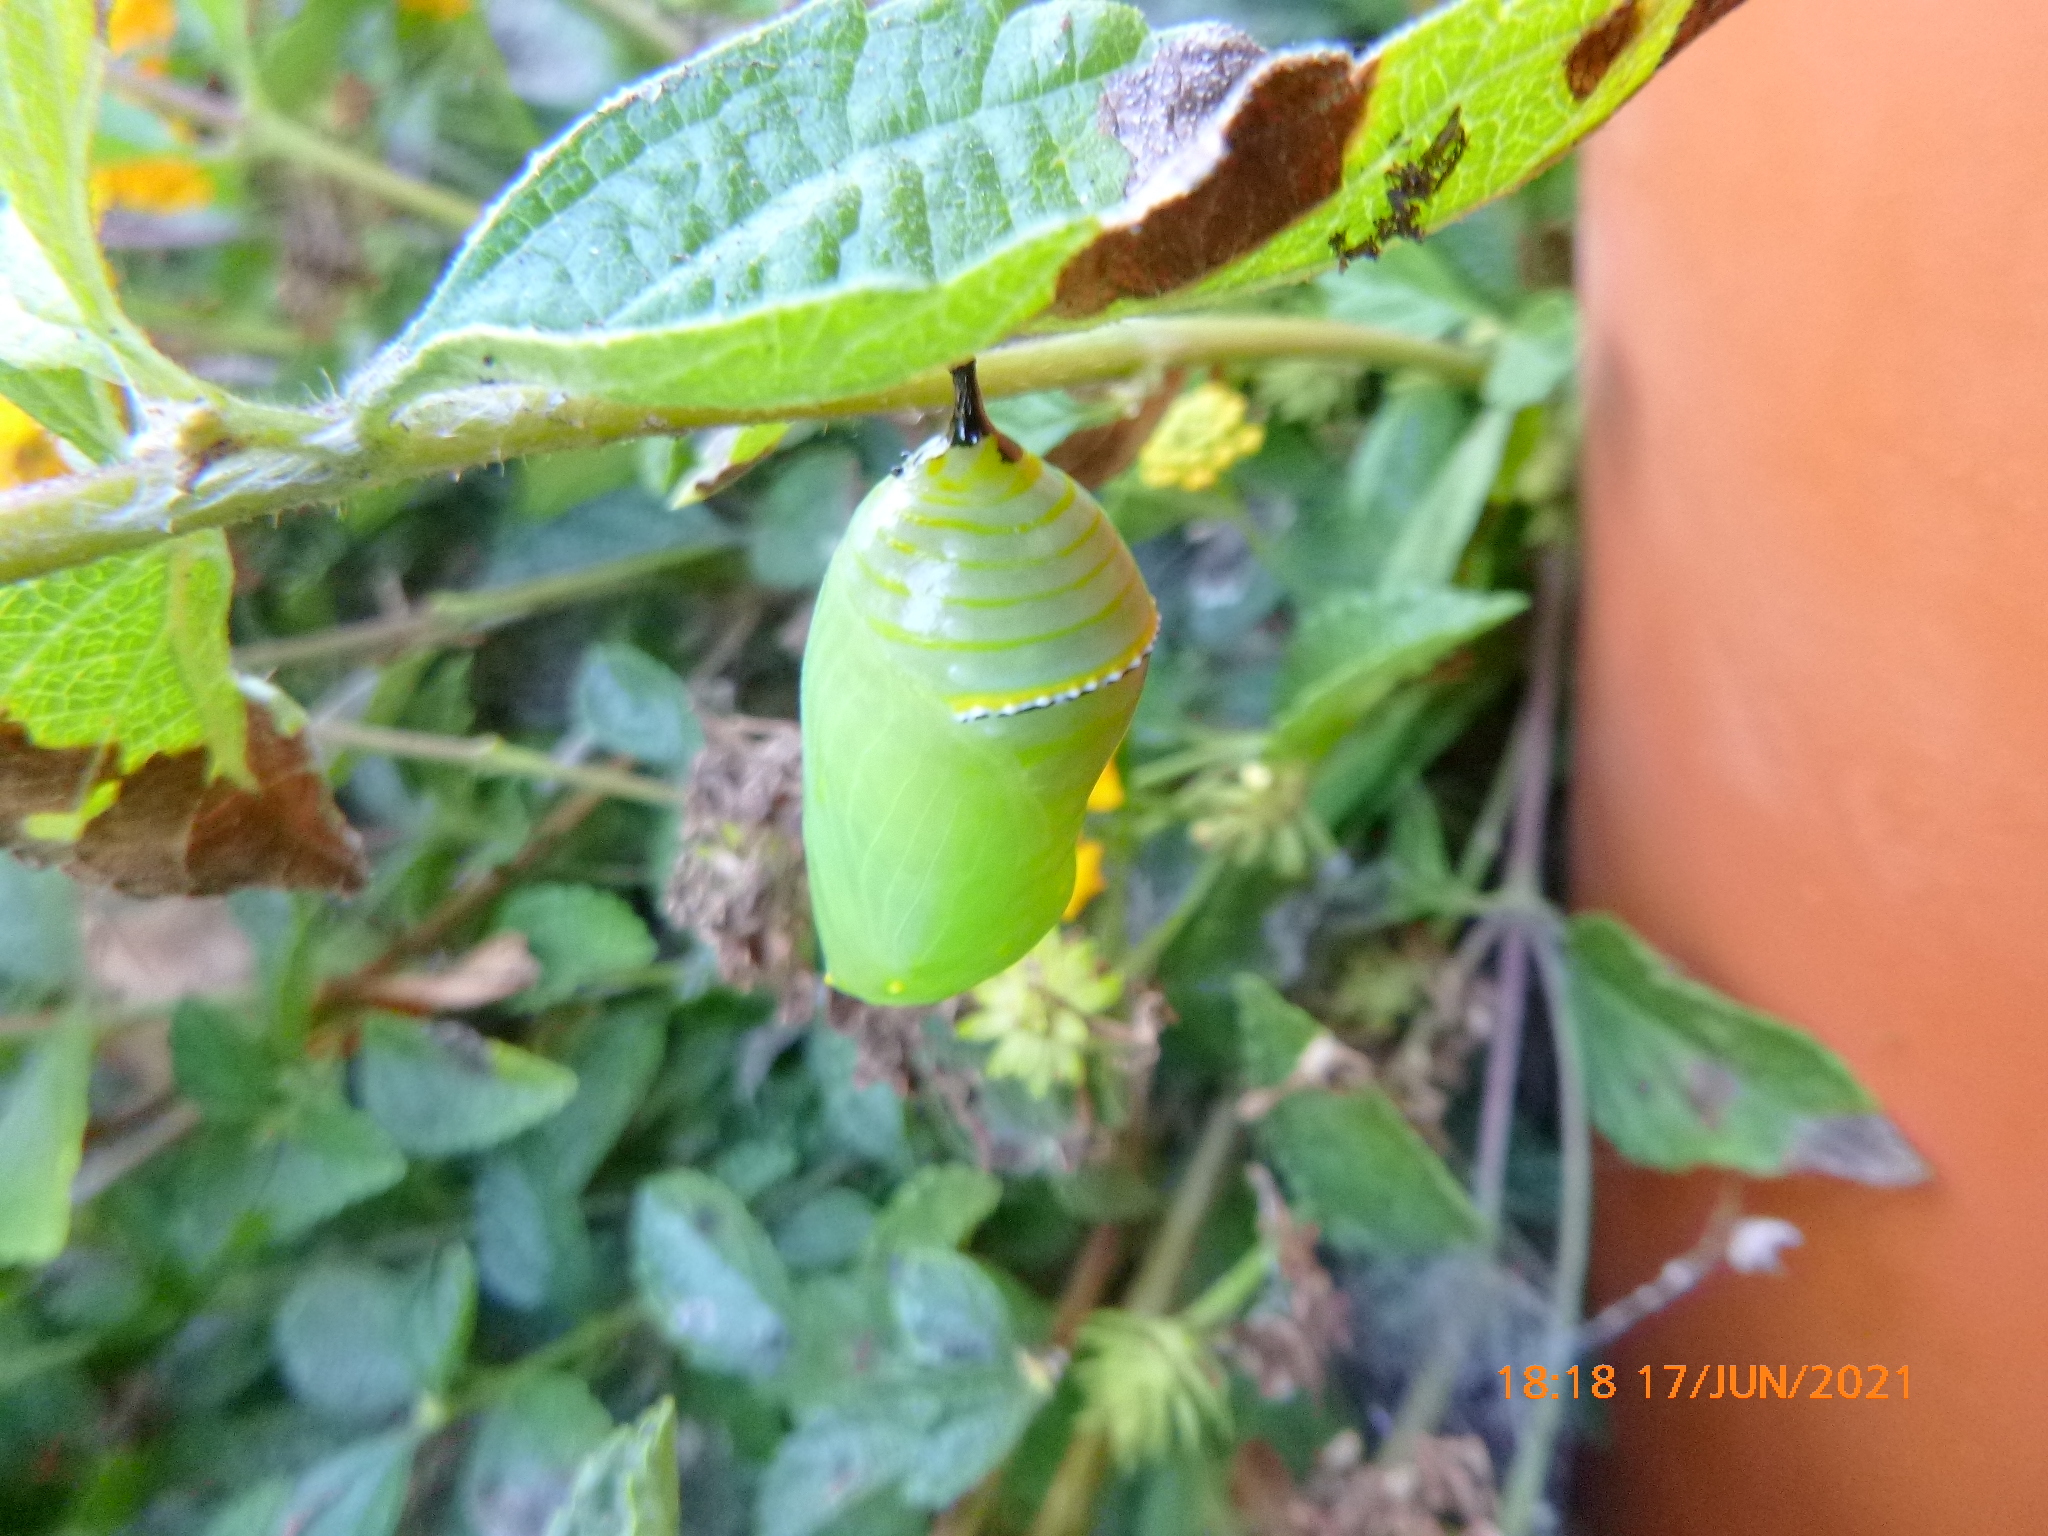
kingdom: Animalia
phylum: Arthropoda
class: Insecta
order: Lepidoptera
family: Nymphalidae
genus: Danaus
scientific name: Danaus plexippus
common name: Monarch
